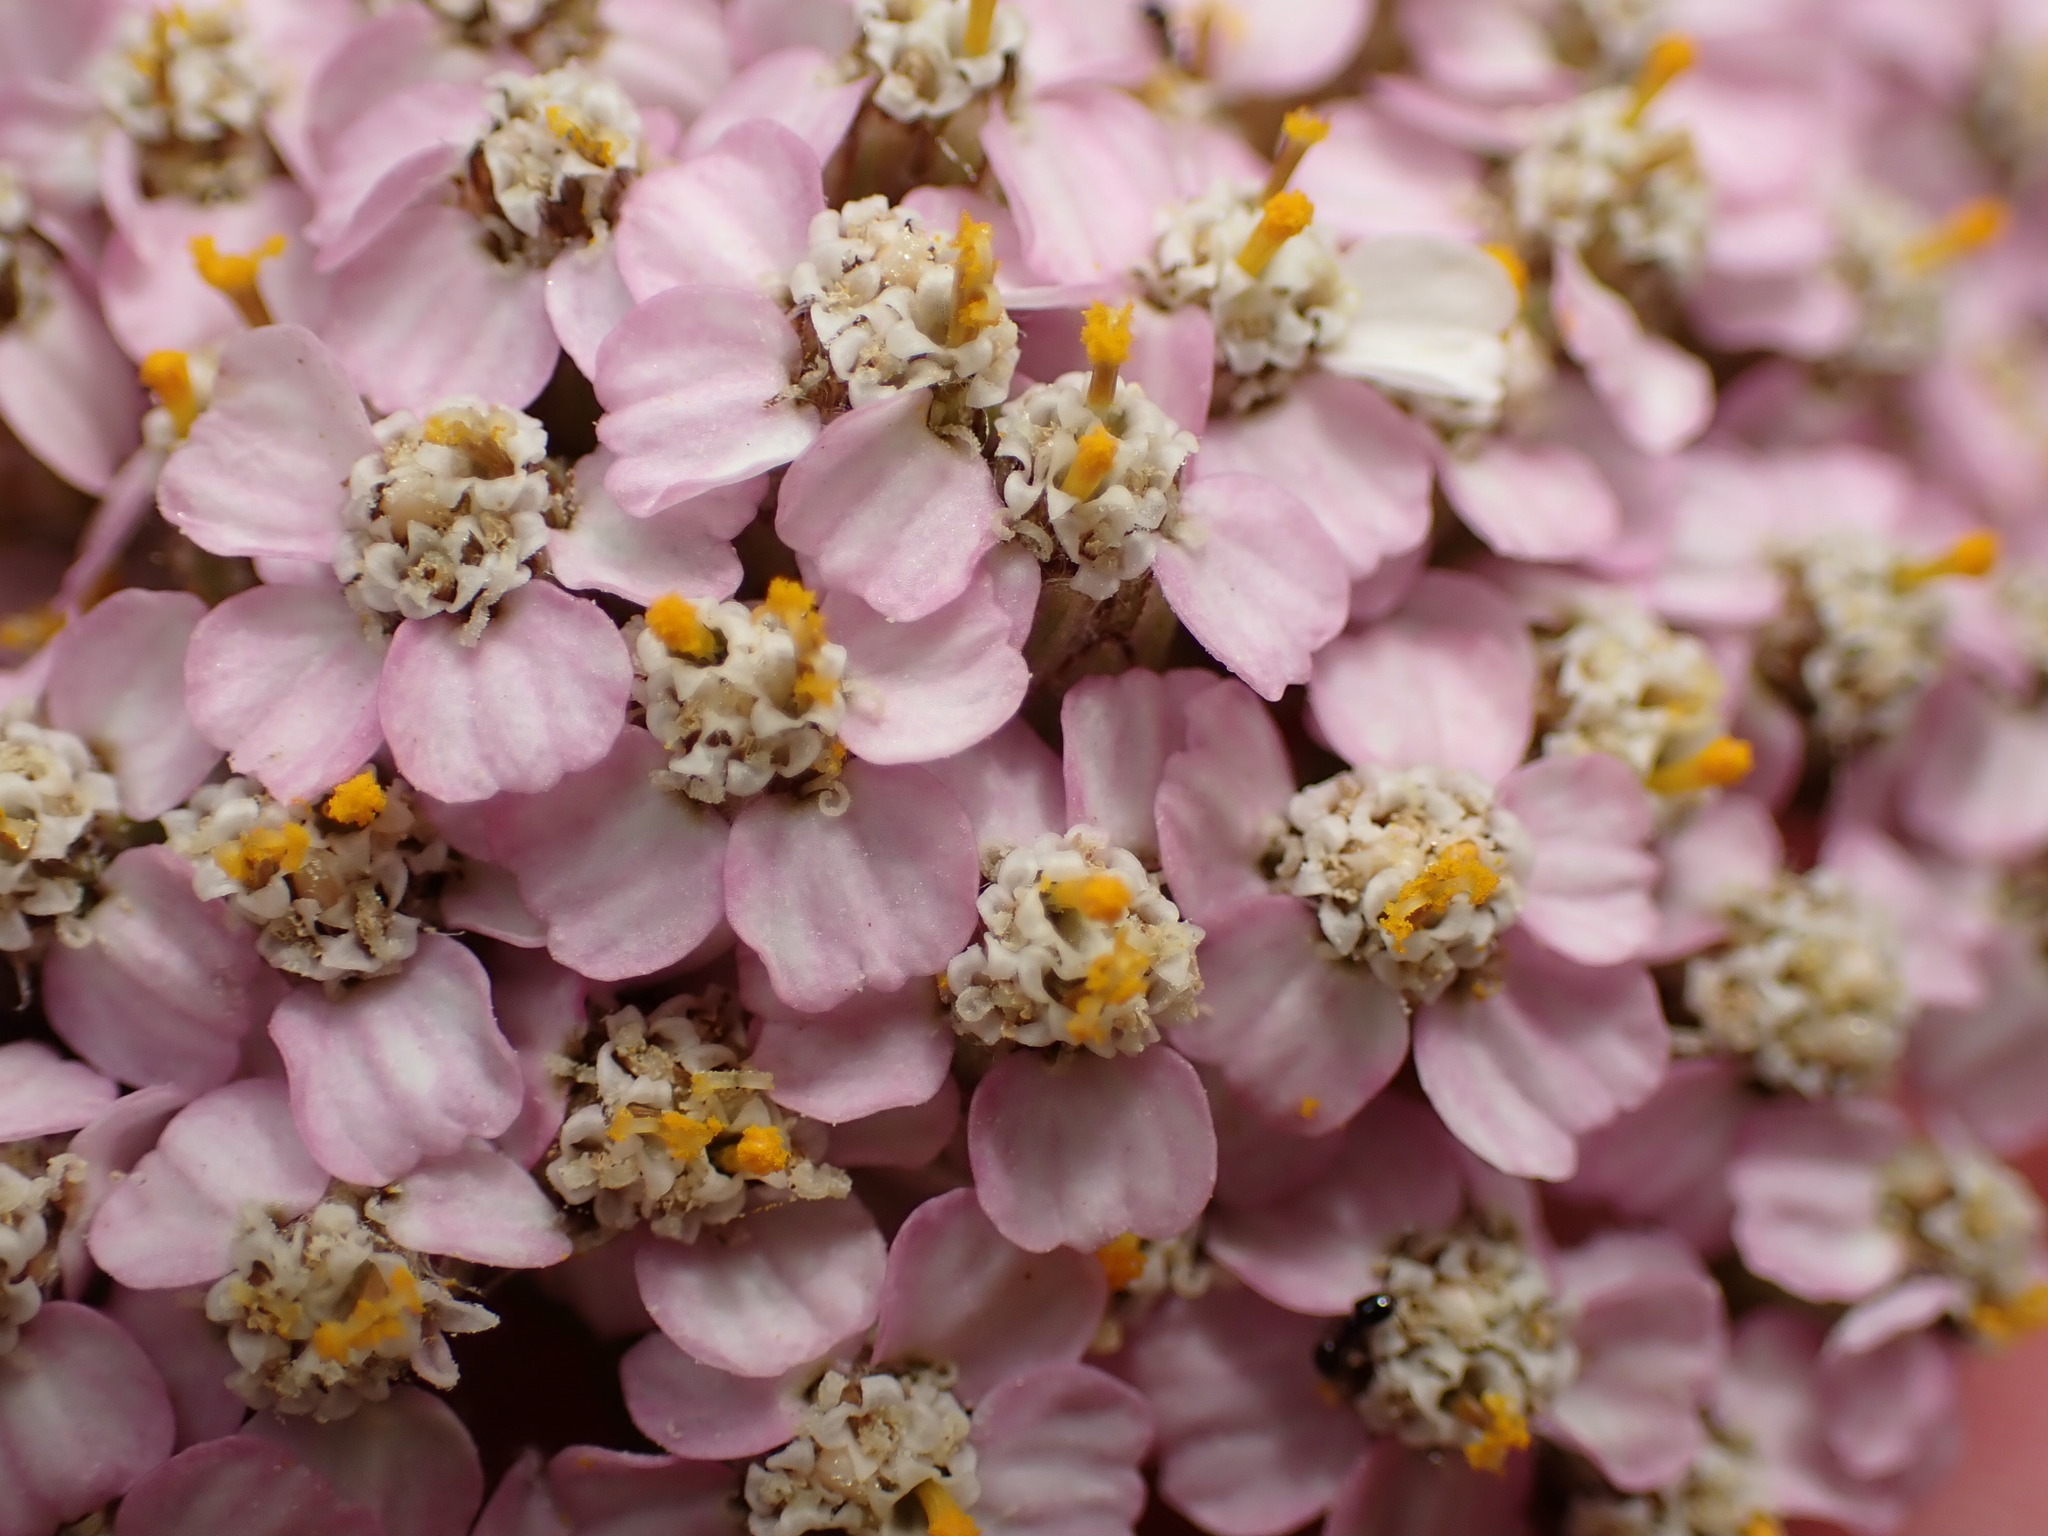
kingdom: Plantae
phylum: Tracheophyta
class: Magnoliopsida
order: Asterales
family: Asteraceae
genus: Achillea
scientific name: Achillea millefolium
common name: Yarrow
